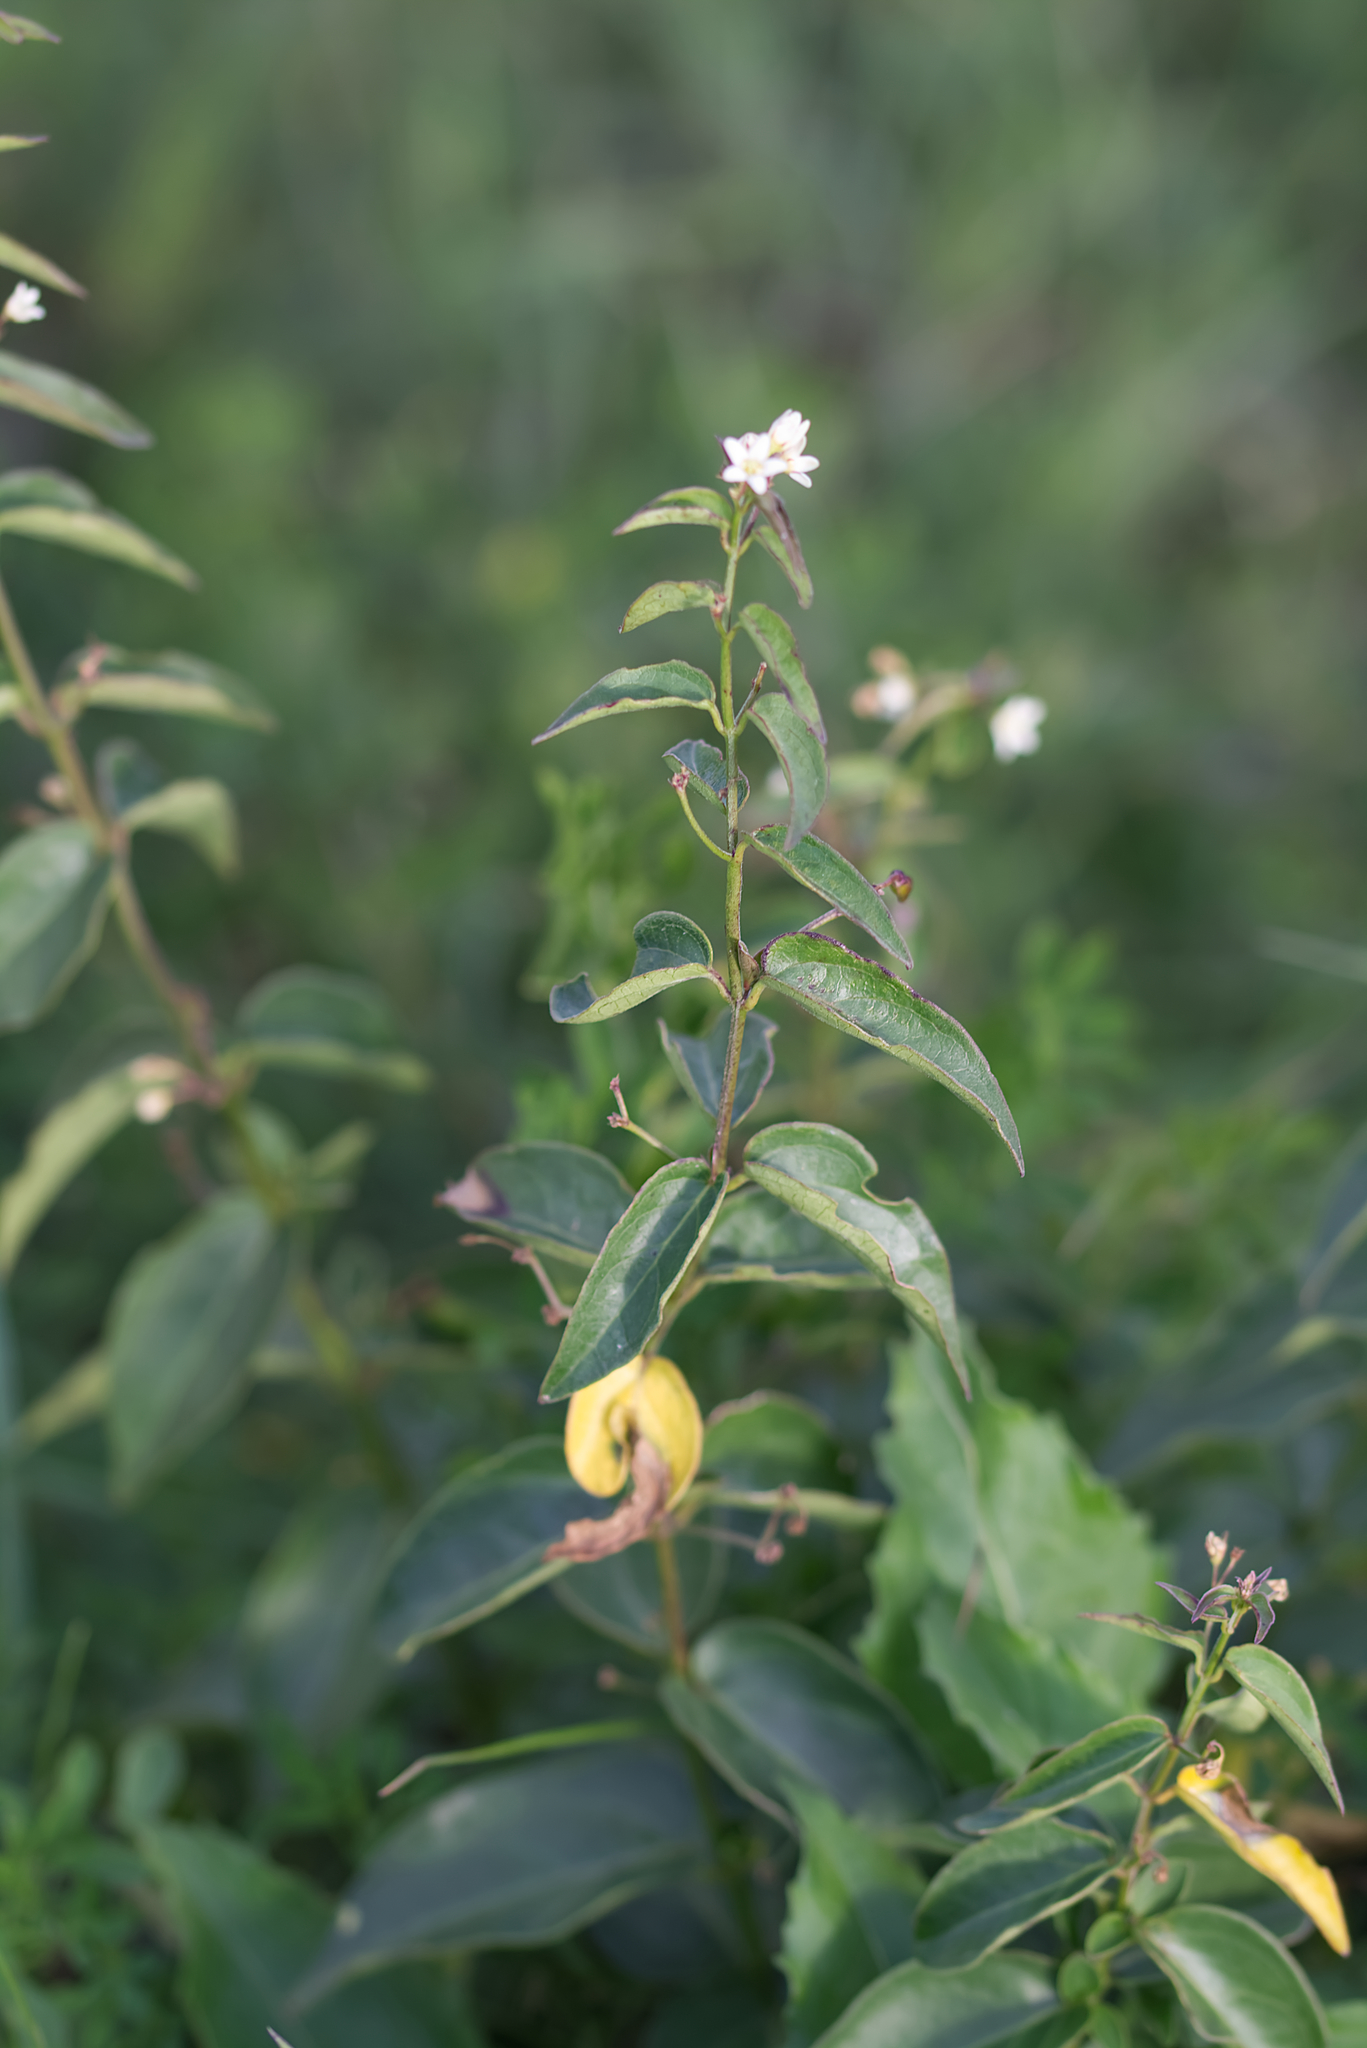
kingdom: Plantae
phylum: Tracheophyta
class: Magnoliopsida
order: Gentianales
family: Apocynaceae
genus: Vincetoxicum
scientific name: Vincetoxicum hirundinaria
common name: White swallowwort
